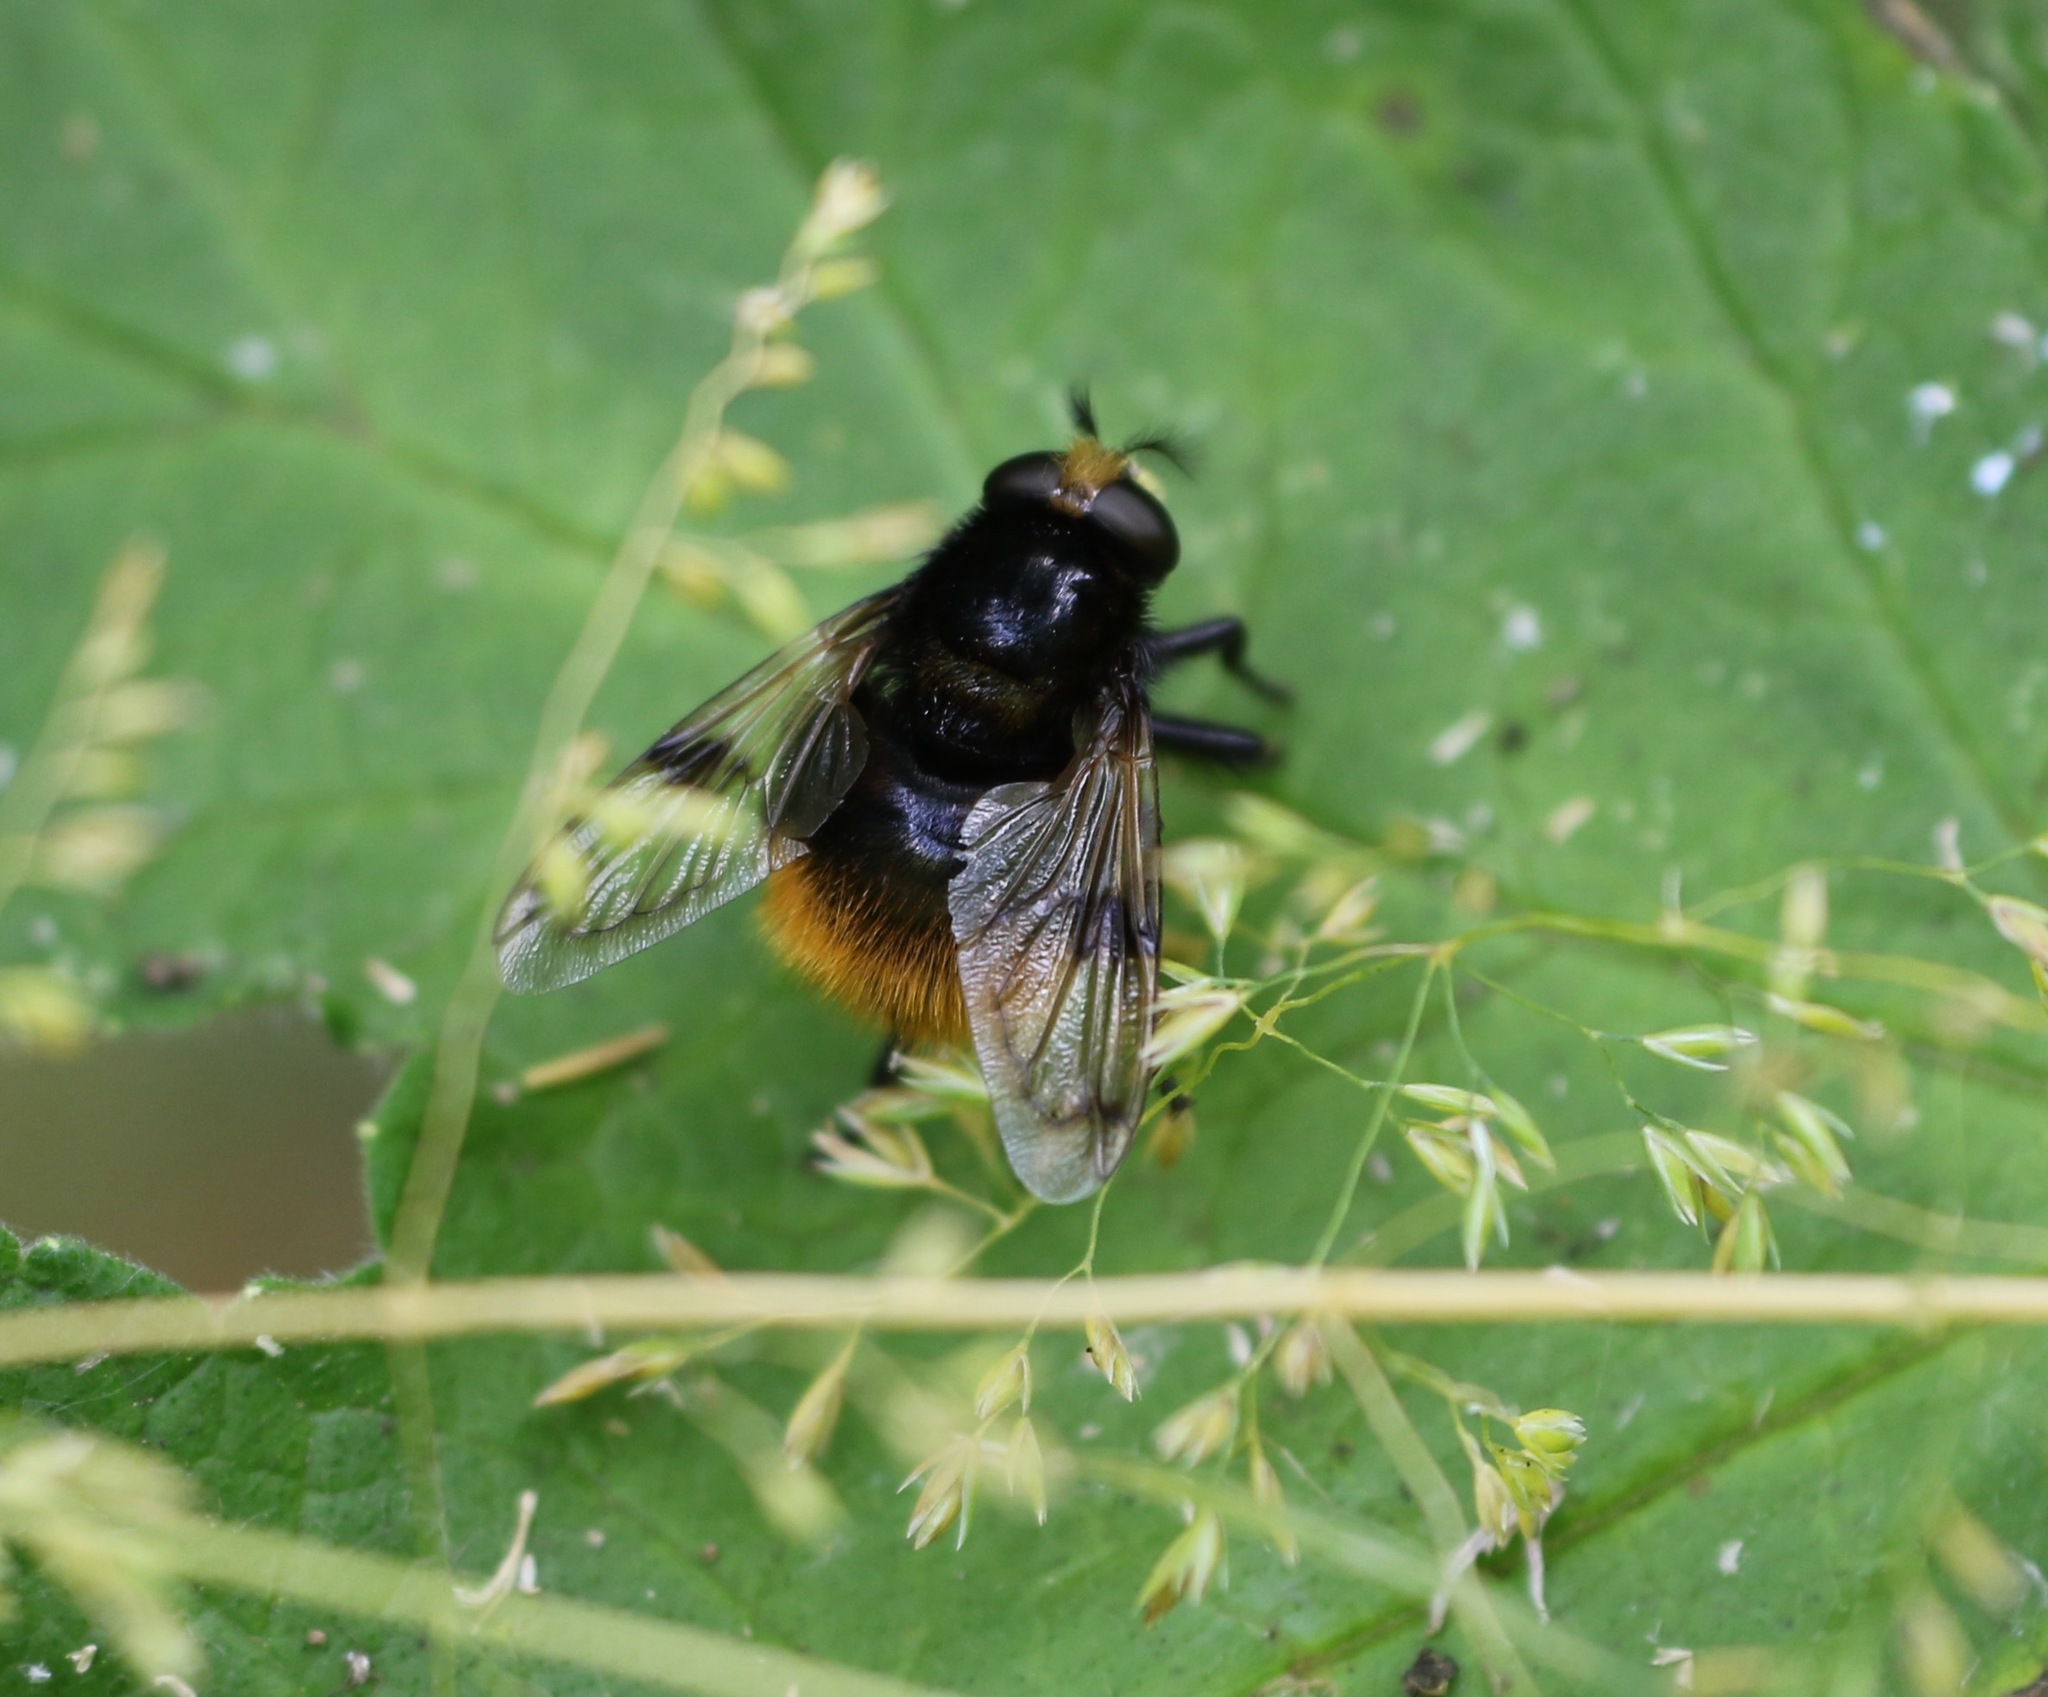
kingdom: Animalia
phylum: Arthropoda
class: Insecta
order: Diptera
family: Syrphidae
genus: Volucella
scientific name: Volucella bombylans
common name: Bumble bee hover fly
